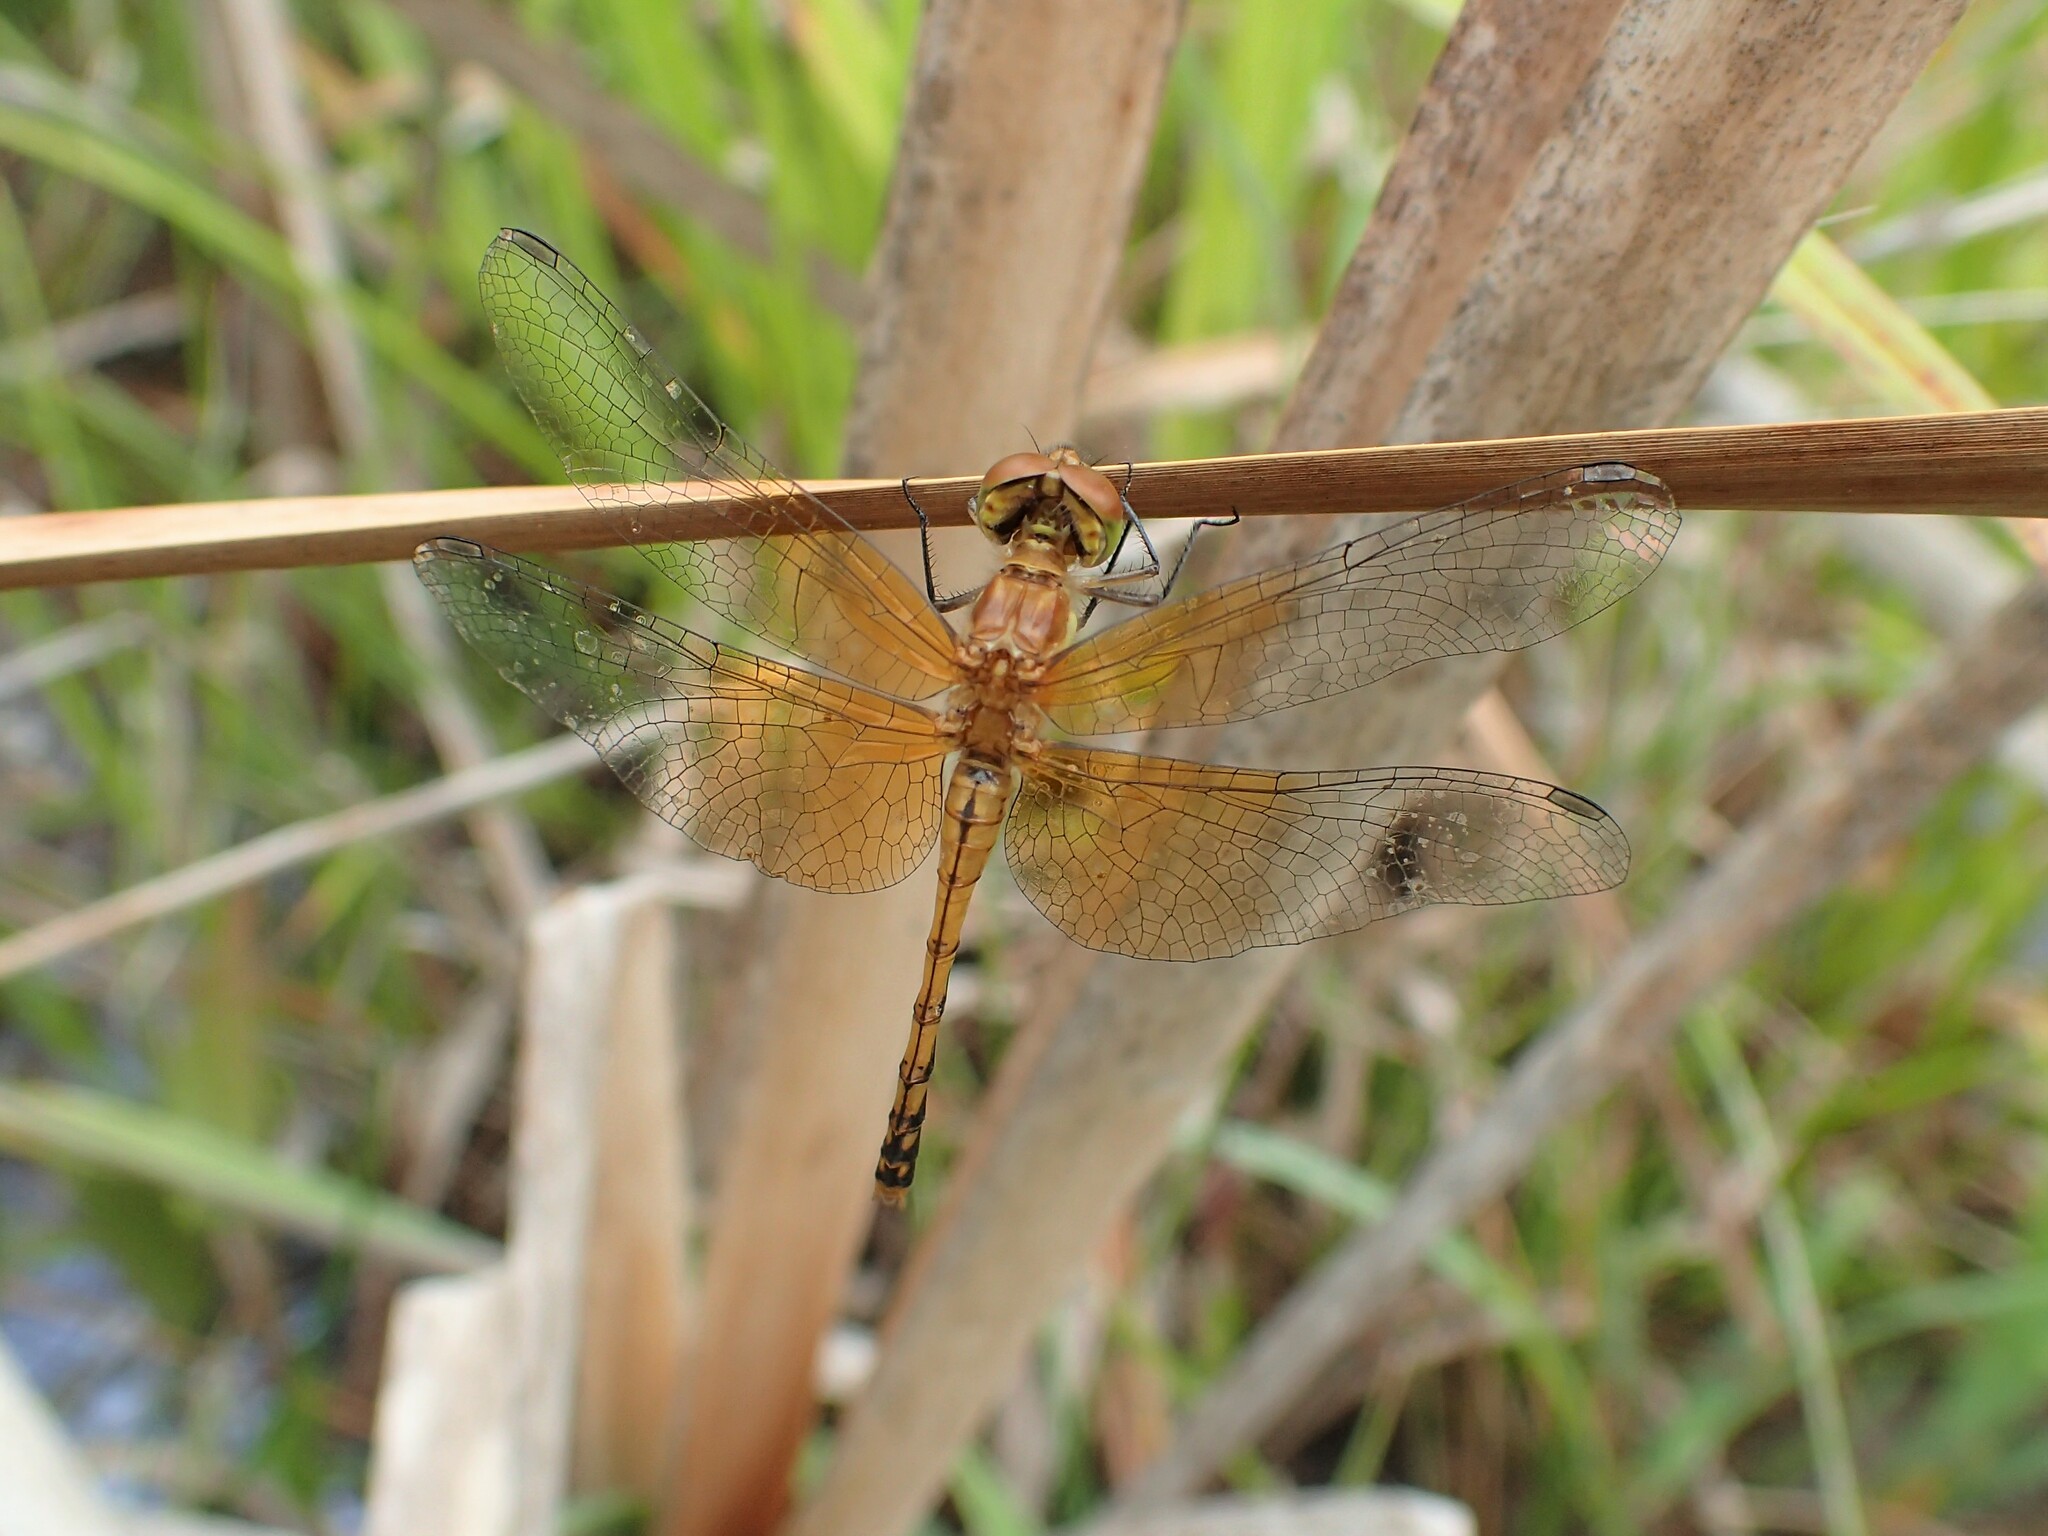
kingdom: Animalia
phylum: Arthropoda
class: Insecta
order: Odonata
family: Libellulidae
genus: Sympetrum
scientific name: Sympetrum semicinctum
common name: Band-winged meadowhawk
